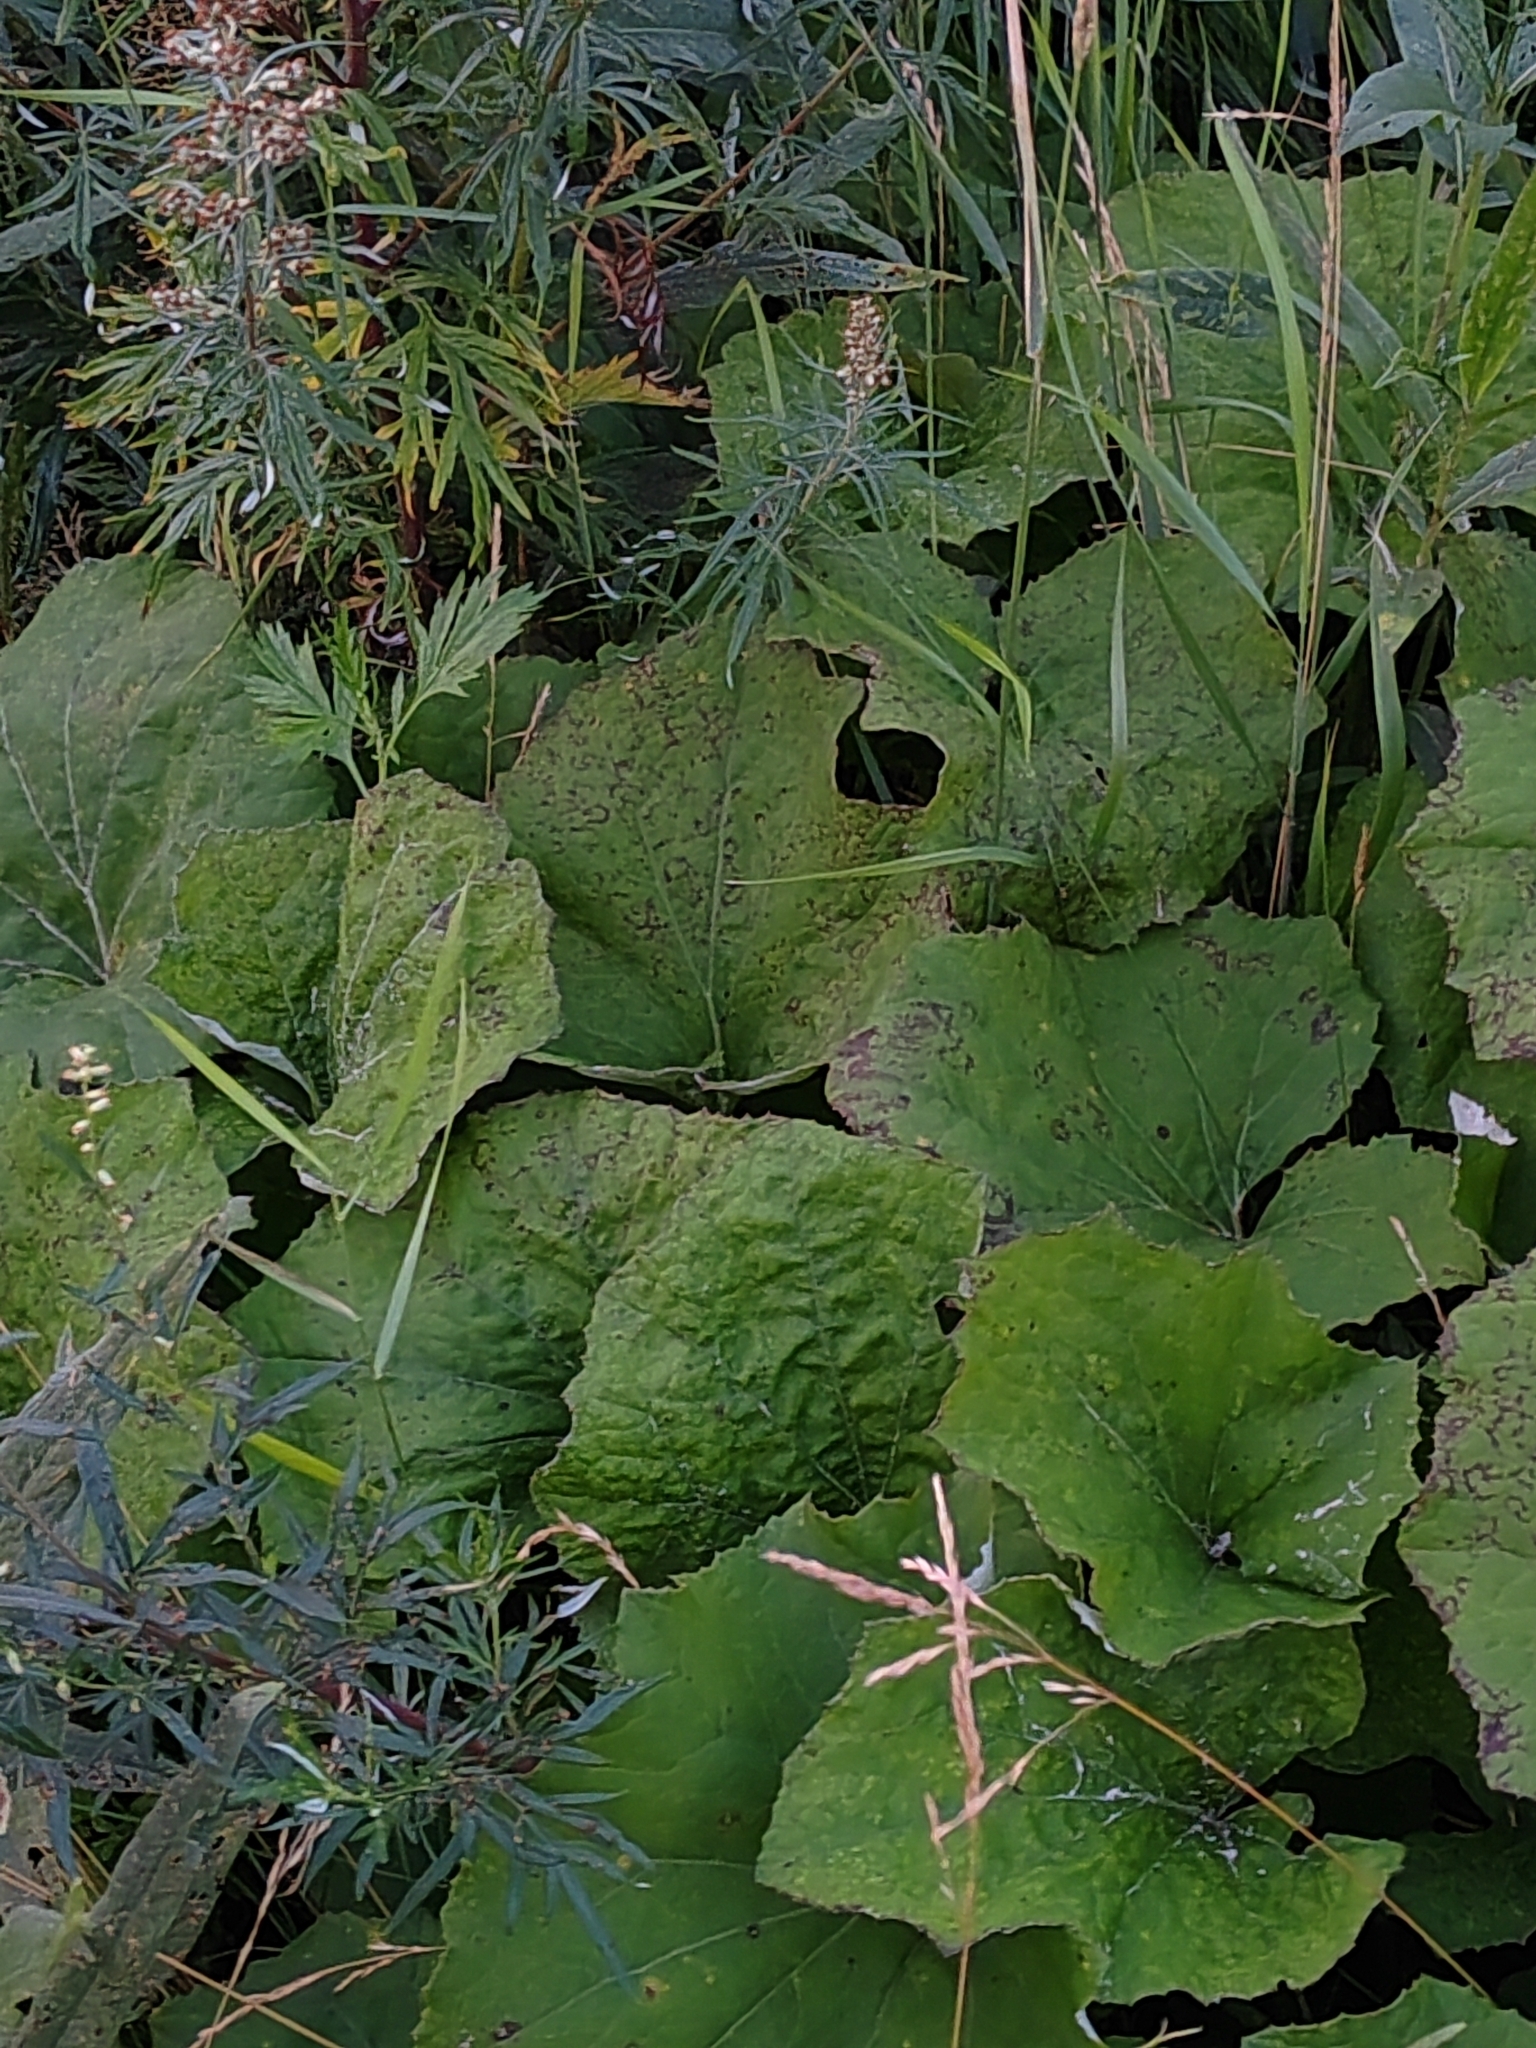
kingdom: Plantae
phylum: Tracheophyta
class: Magnoliopsida
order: Asterales
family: Asteraceae
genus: Tussilago
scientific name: Tussilago farfara
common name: Coltsfoot
